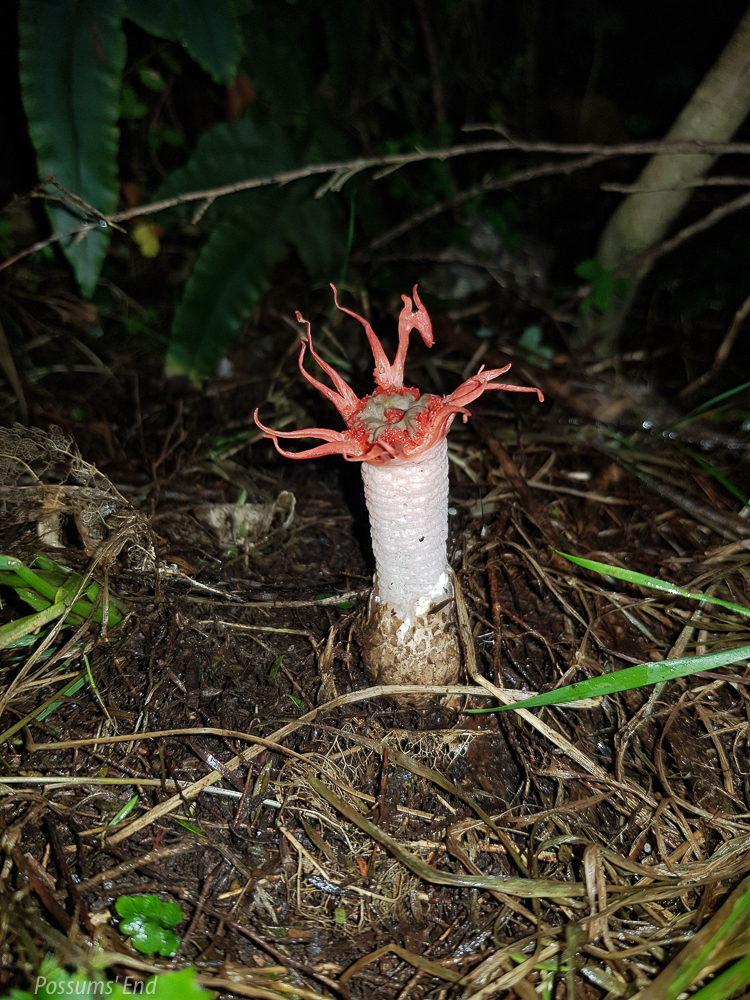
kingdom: Fungi
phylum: Basidiomycota
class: Agaricomycetes
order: Phallales
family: Phallaceae
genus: Aseroe
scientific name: Aseroe rubra
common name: Starfish fungus
